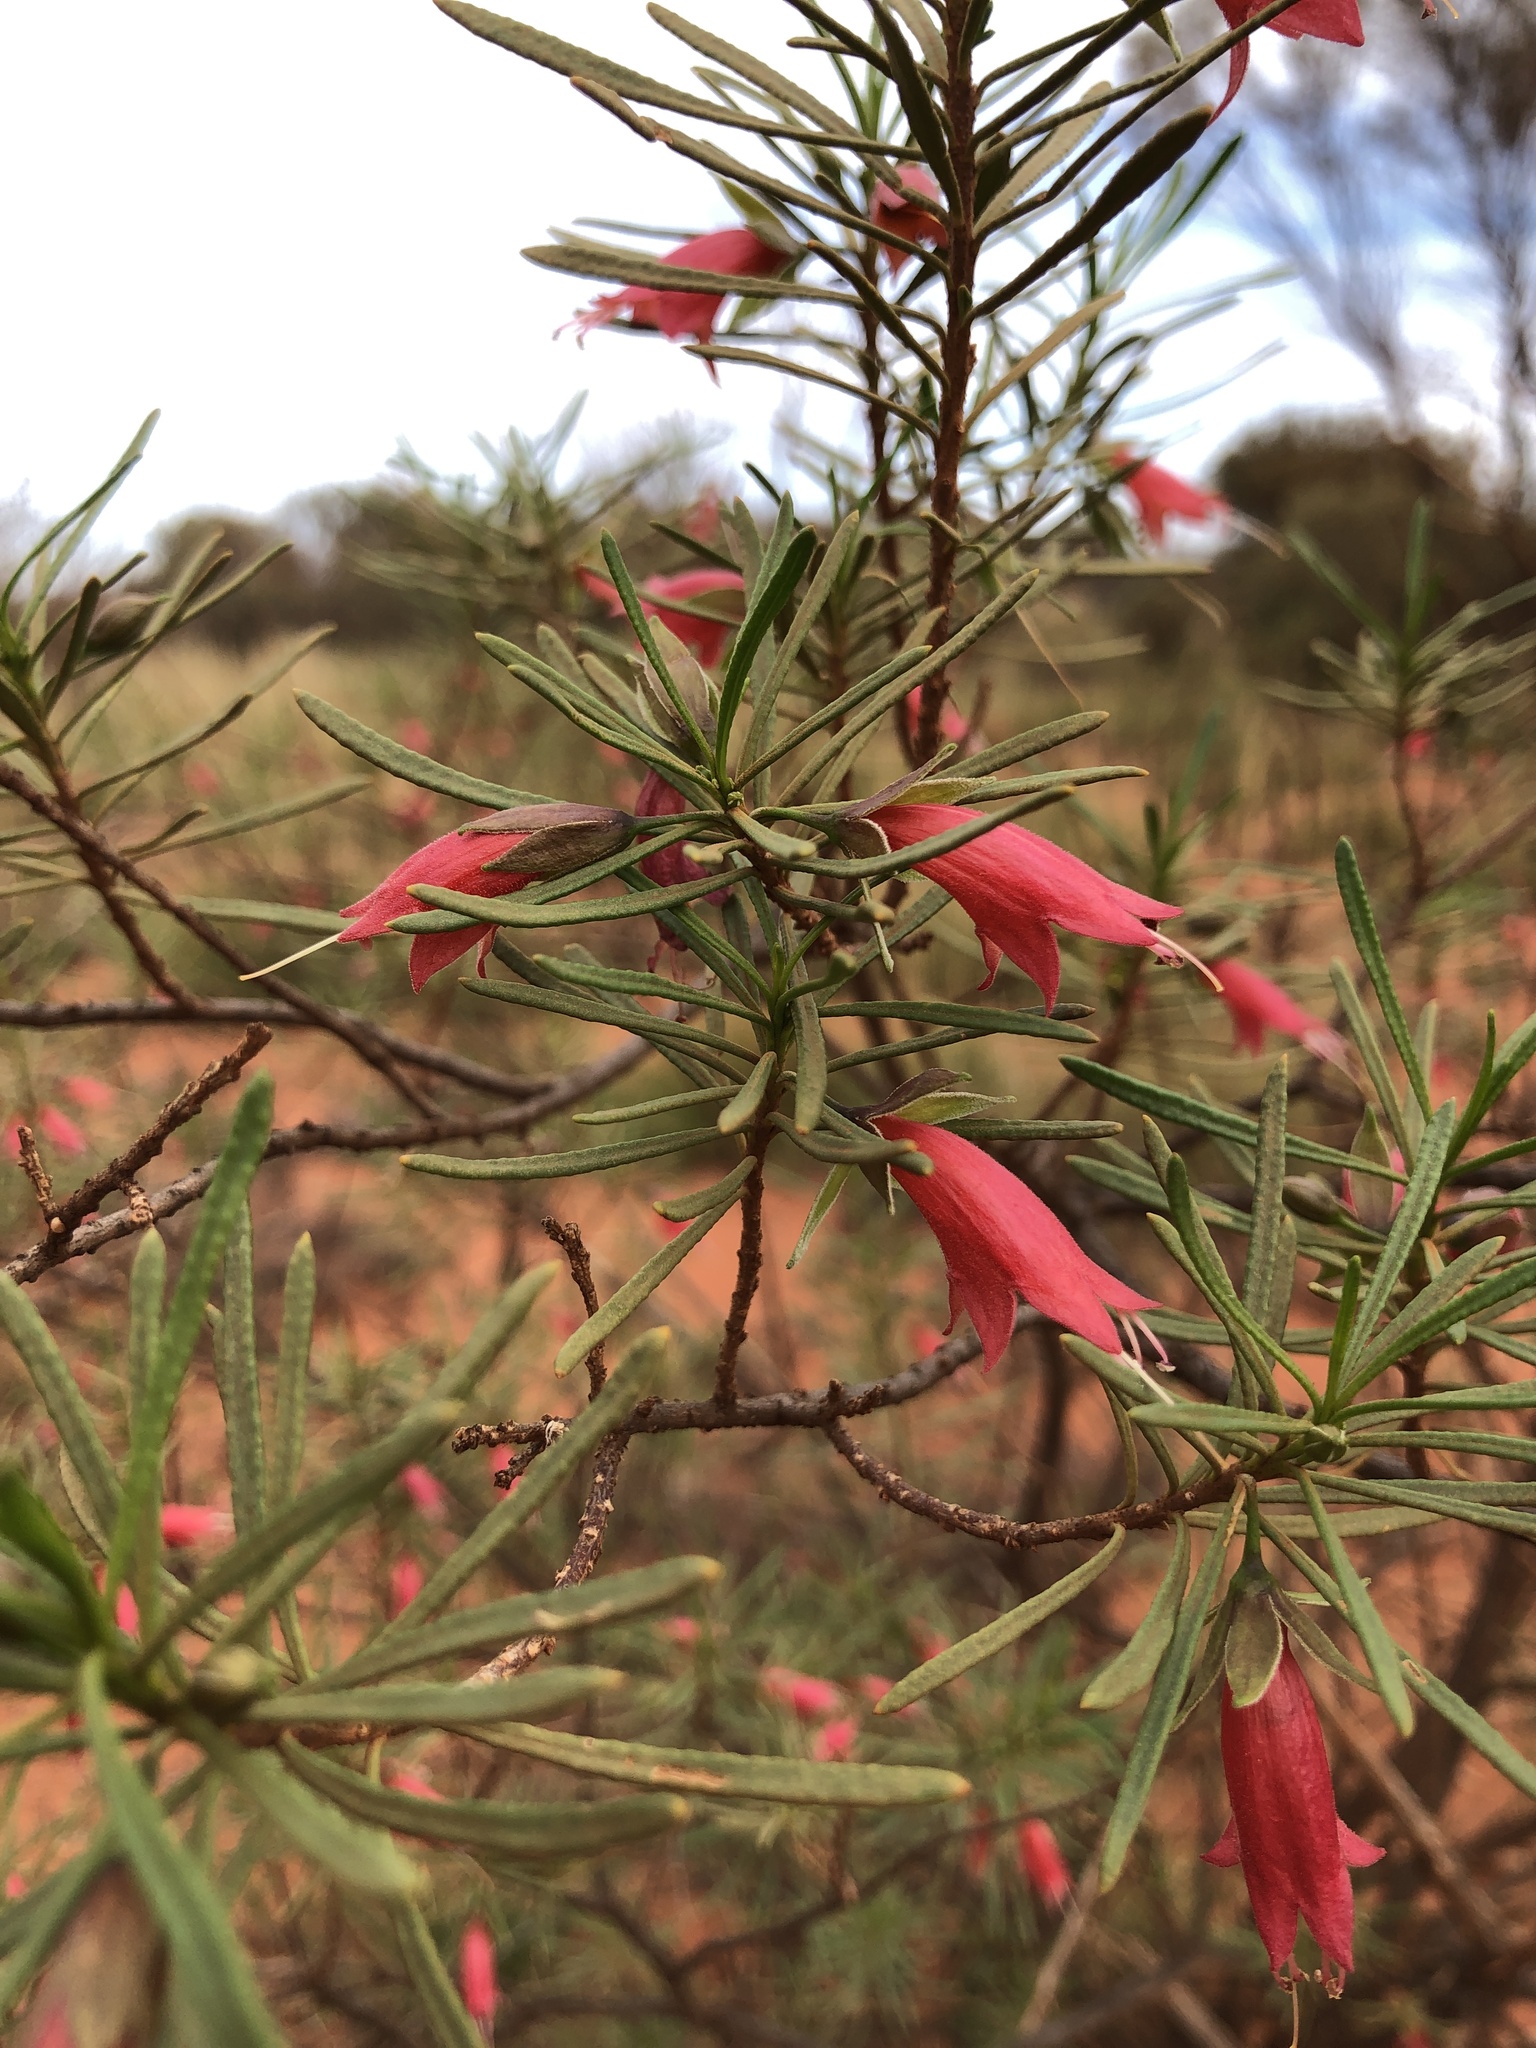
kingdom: Plantae
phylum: Tracheophyta
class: Magnoliopsida
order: Lamiales
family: Scrophulariaceae
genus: Eremophila
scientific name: Eremophila latrobei
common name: Crimson turkeybush
